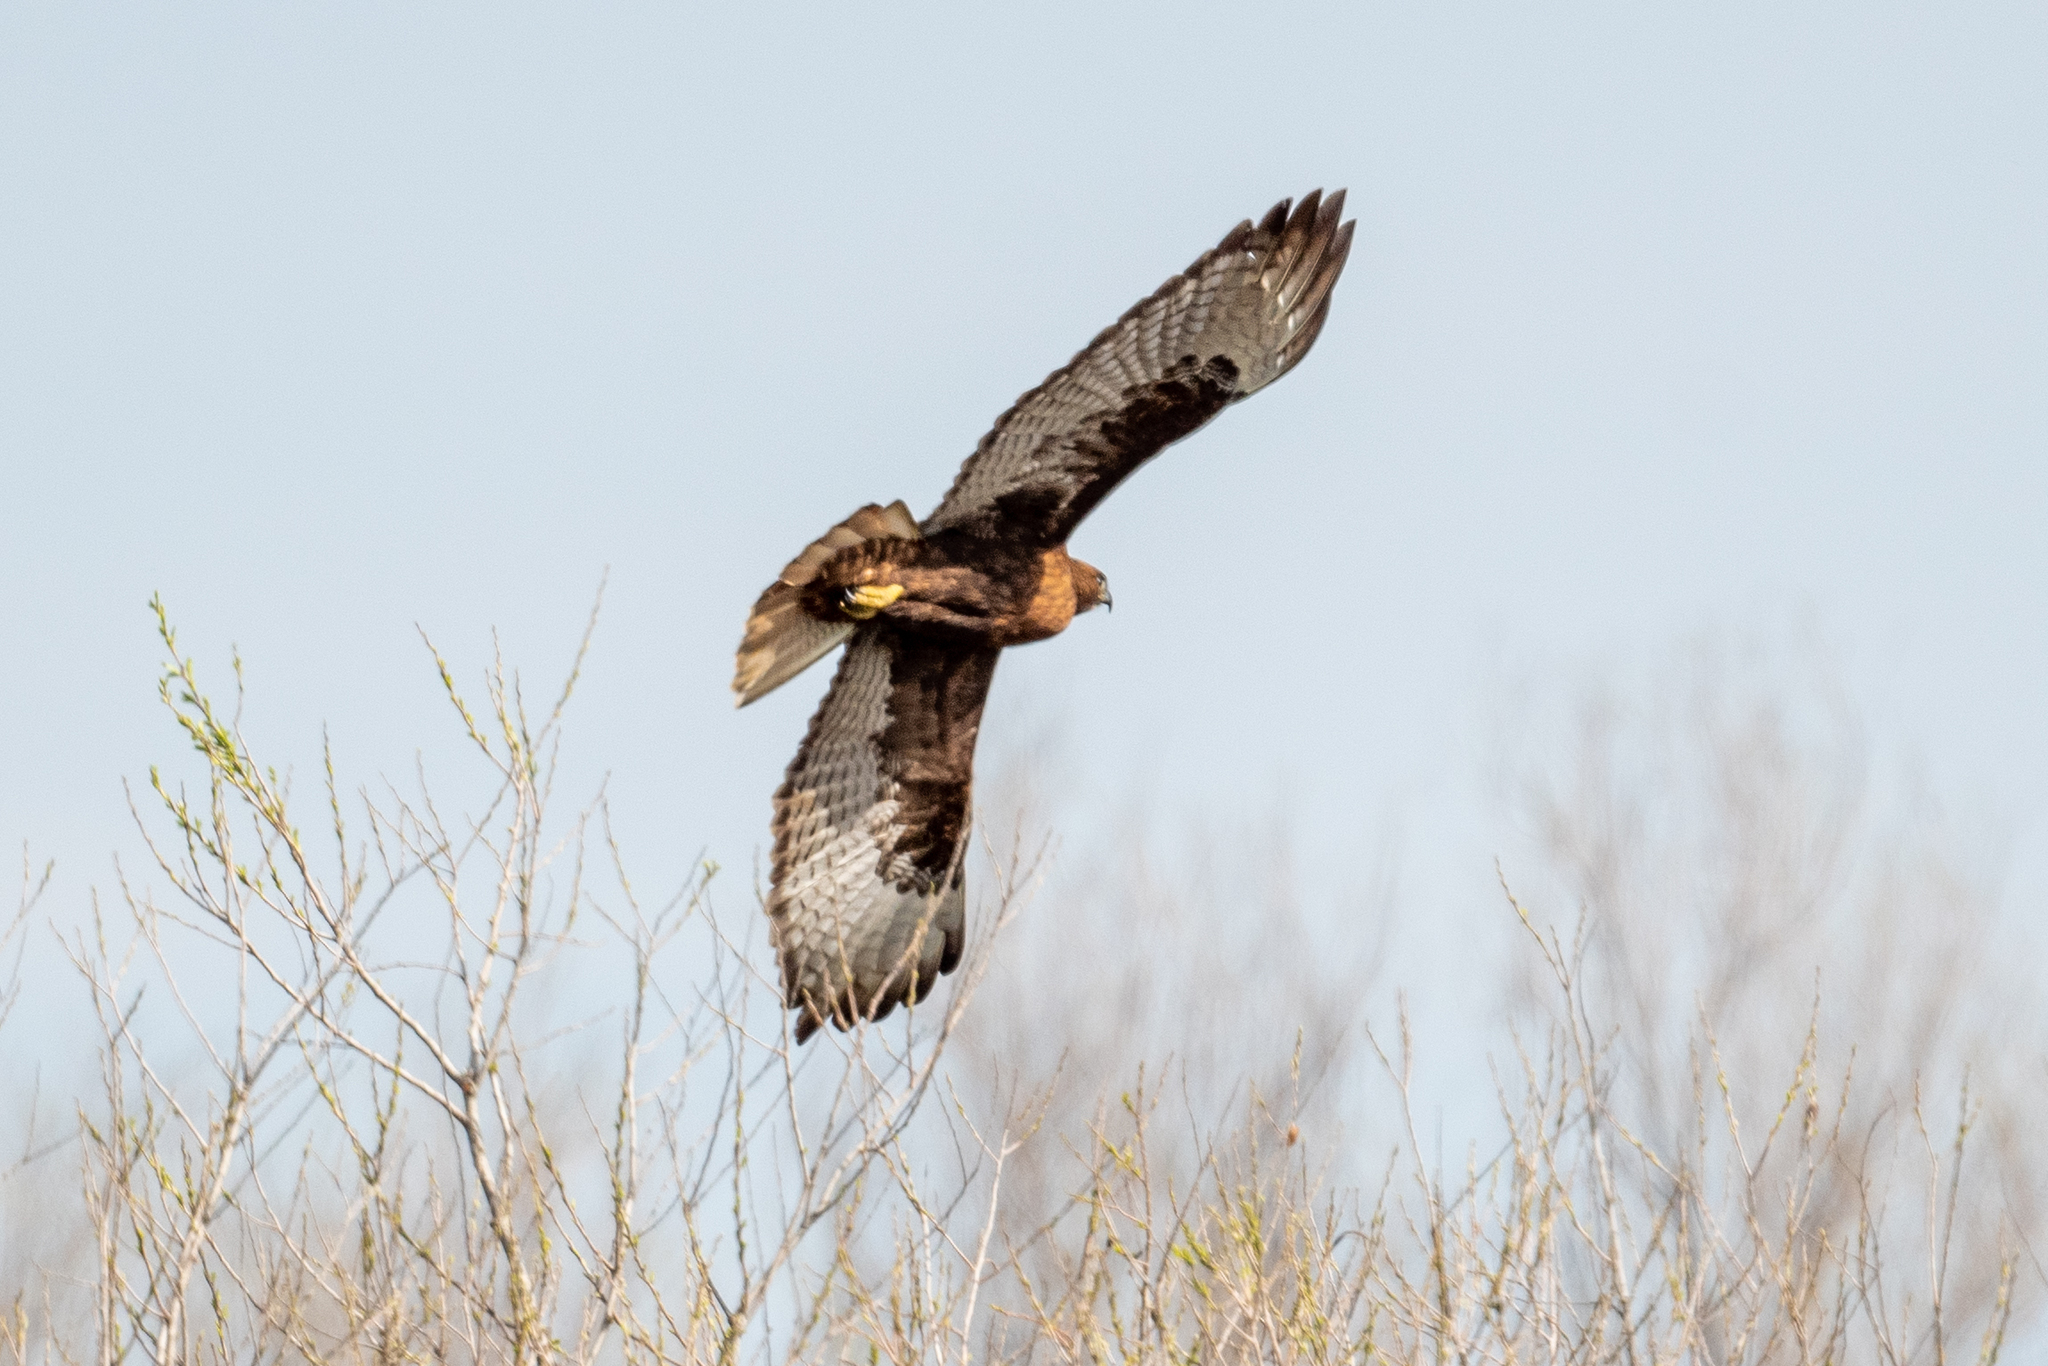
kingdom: Animalia
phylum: Chordata
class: Aves
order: Accipitriformes
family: Accipitridae
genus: Buteo
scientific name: Buteo jamaicensis
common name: Red-tailed hawk
